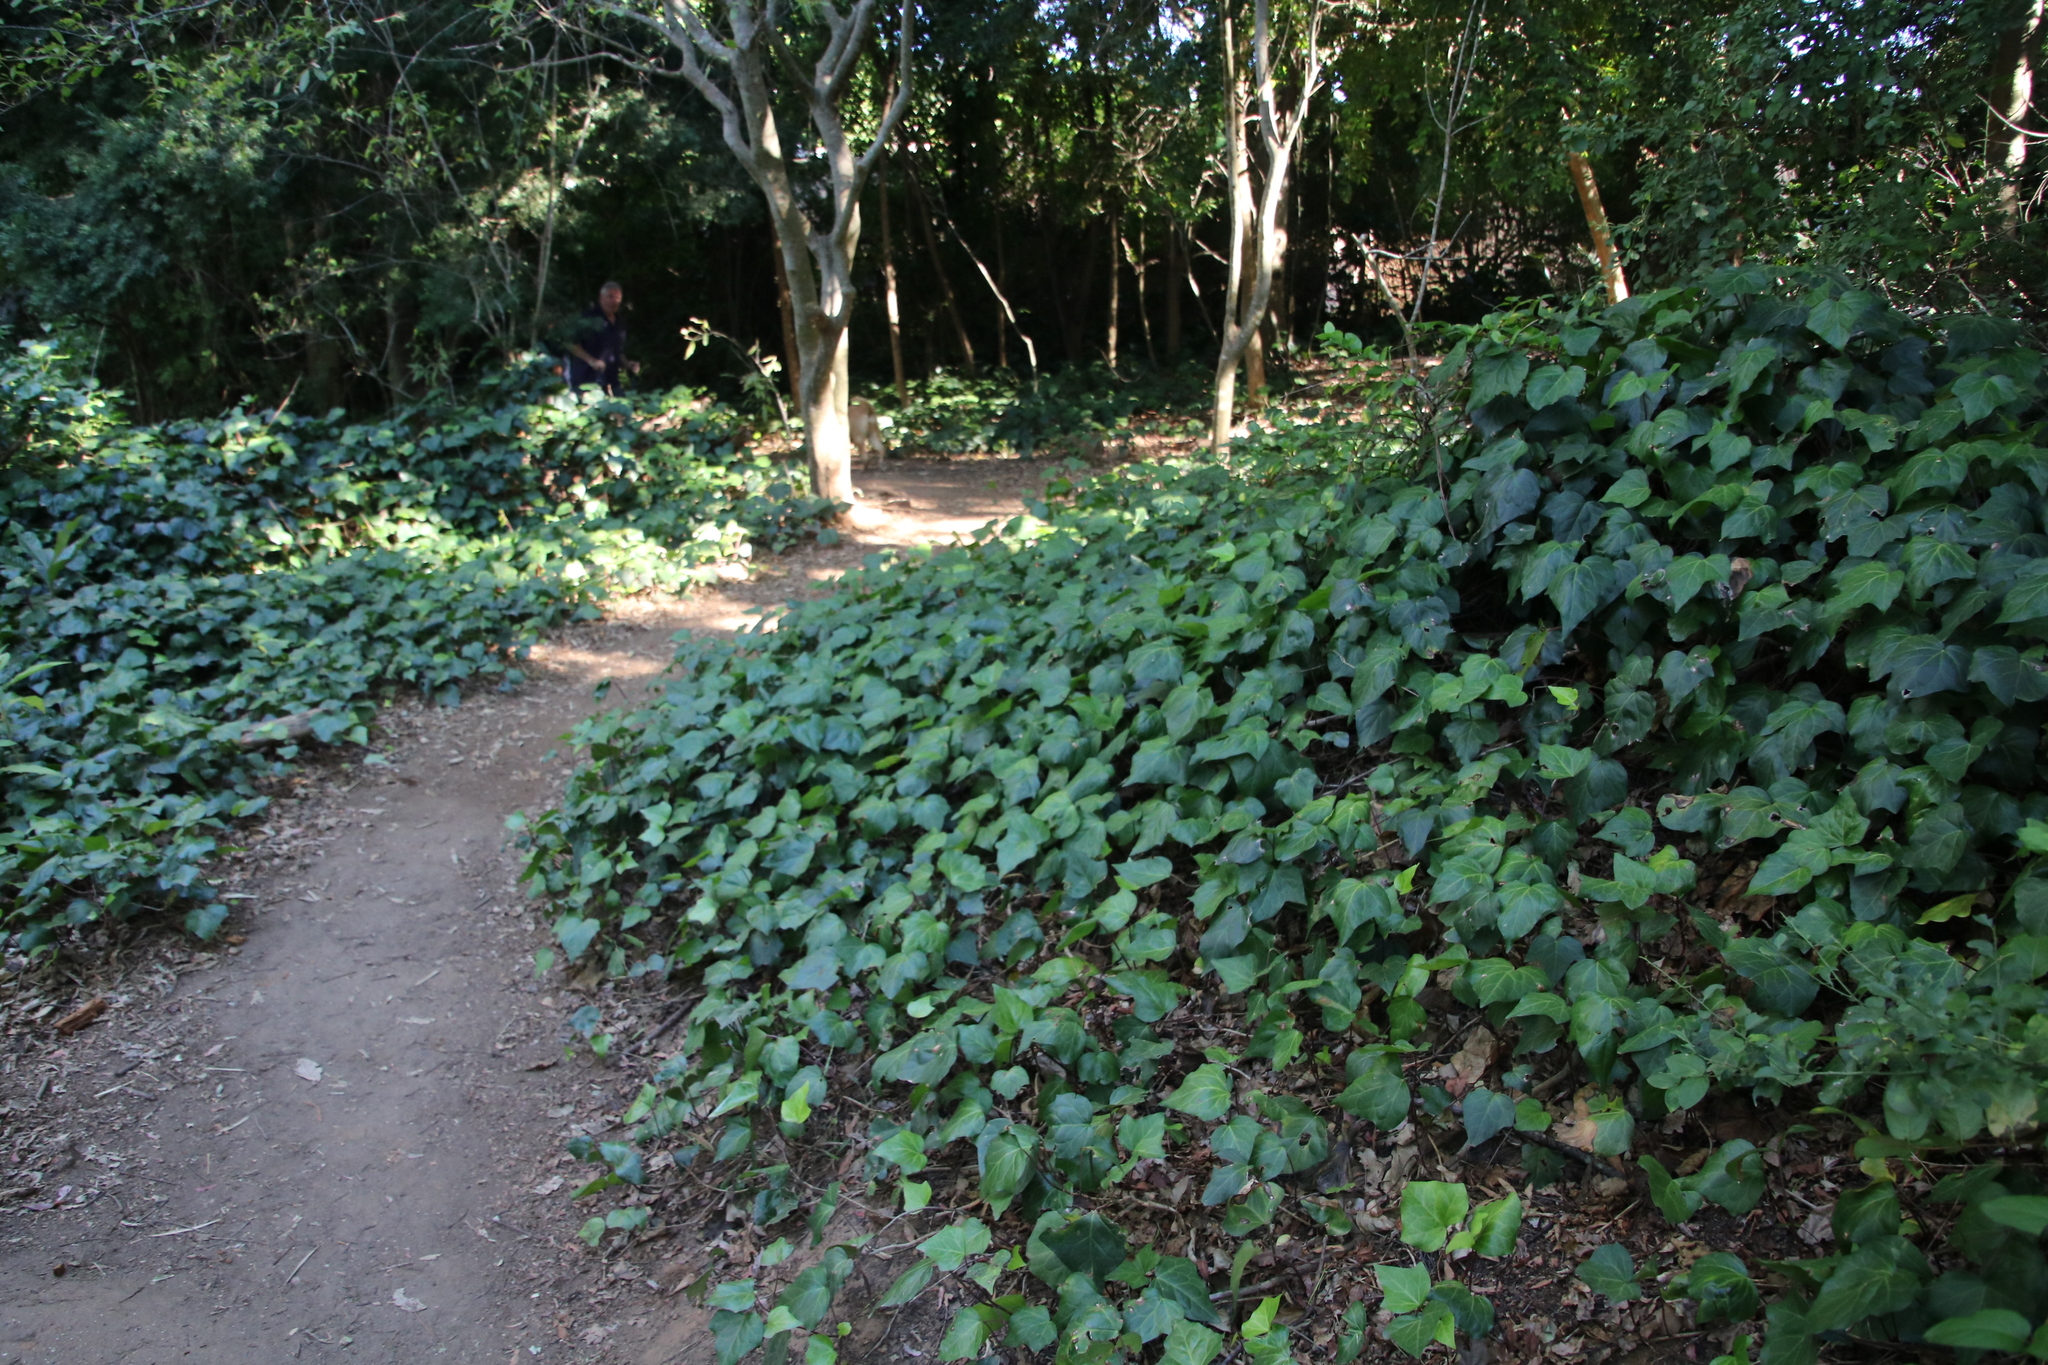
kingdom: Plantae
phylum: Tracheophyta
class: Magnoliopsida
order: Apiales
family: Araliaceae
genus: Hedera
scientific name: Hedera canariensis
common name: Madeira ivy
